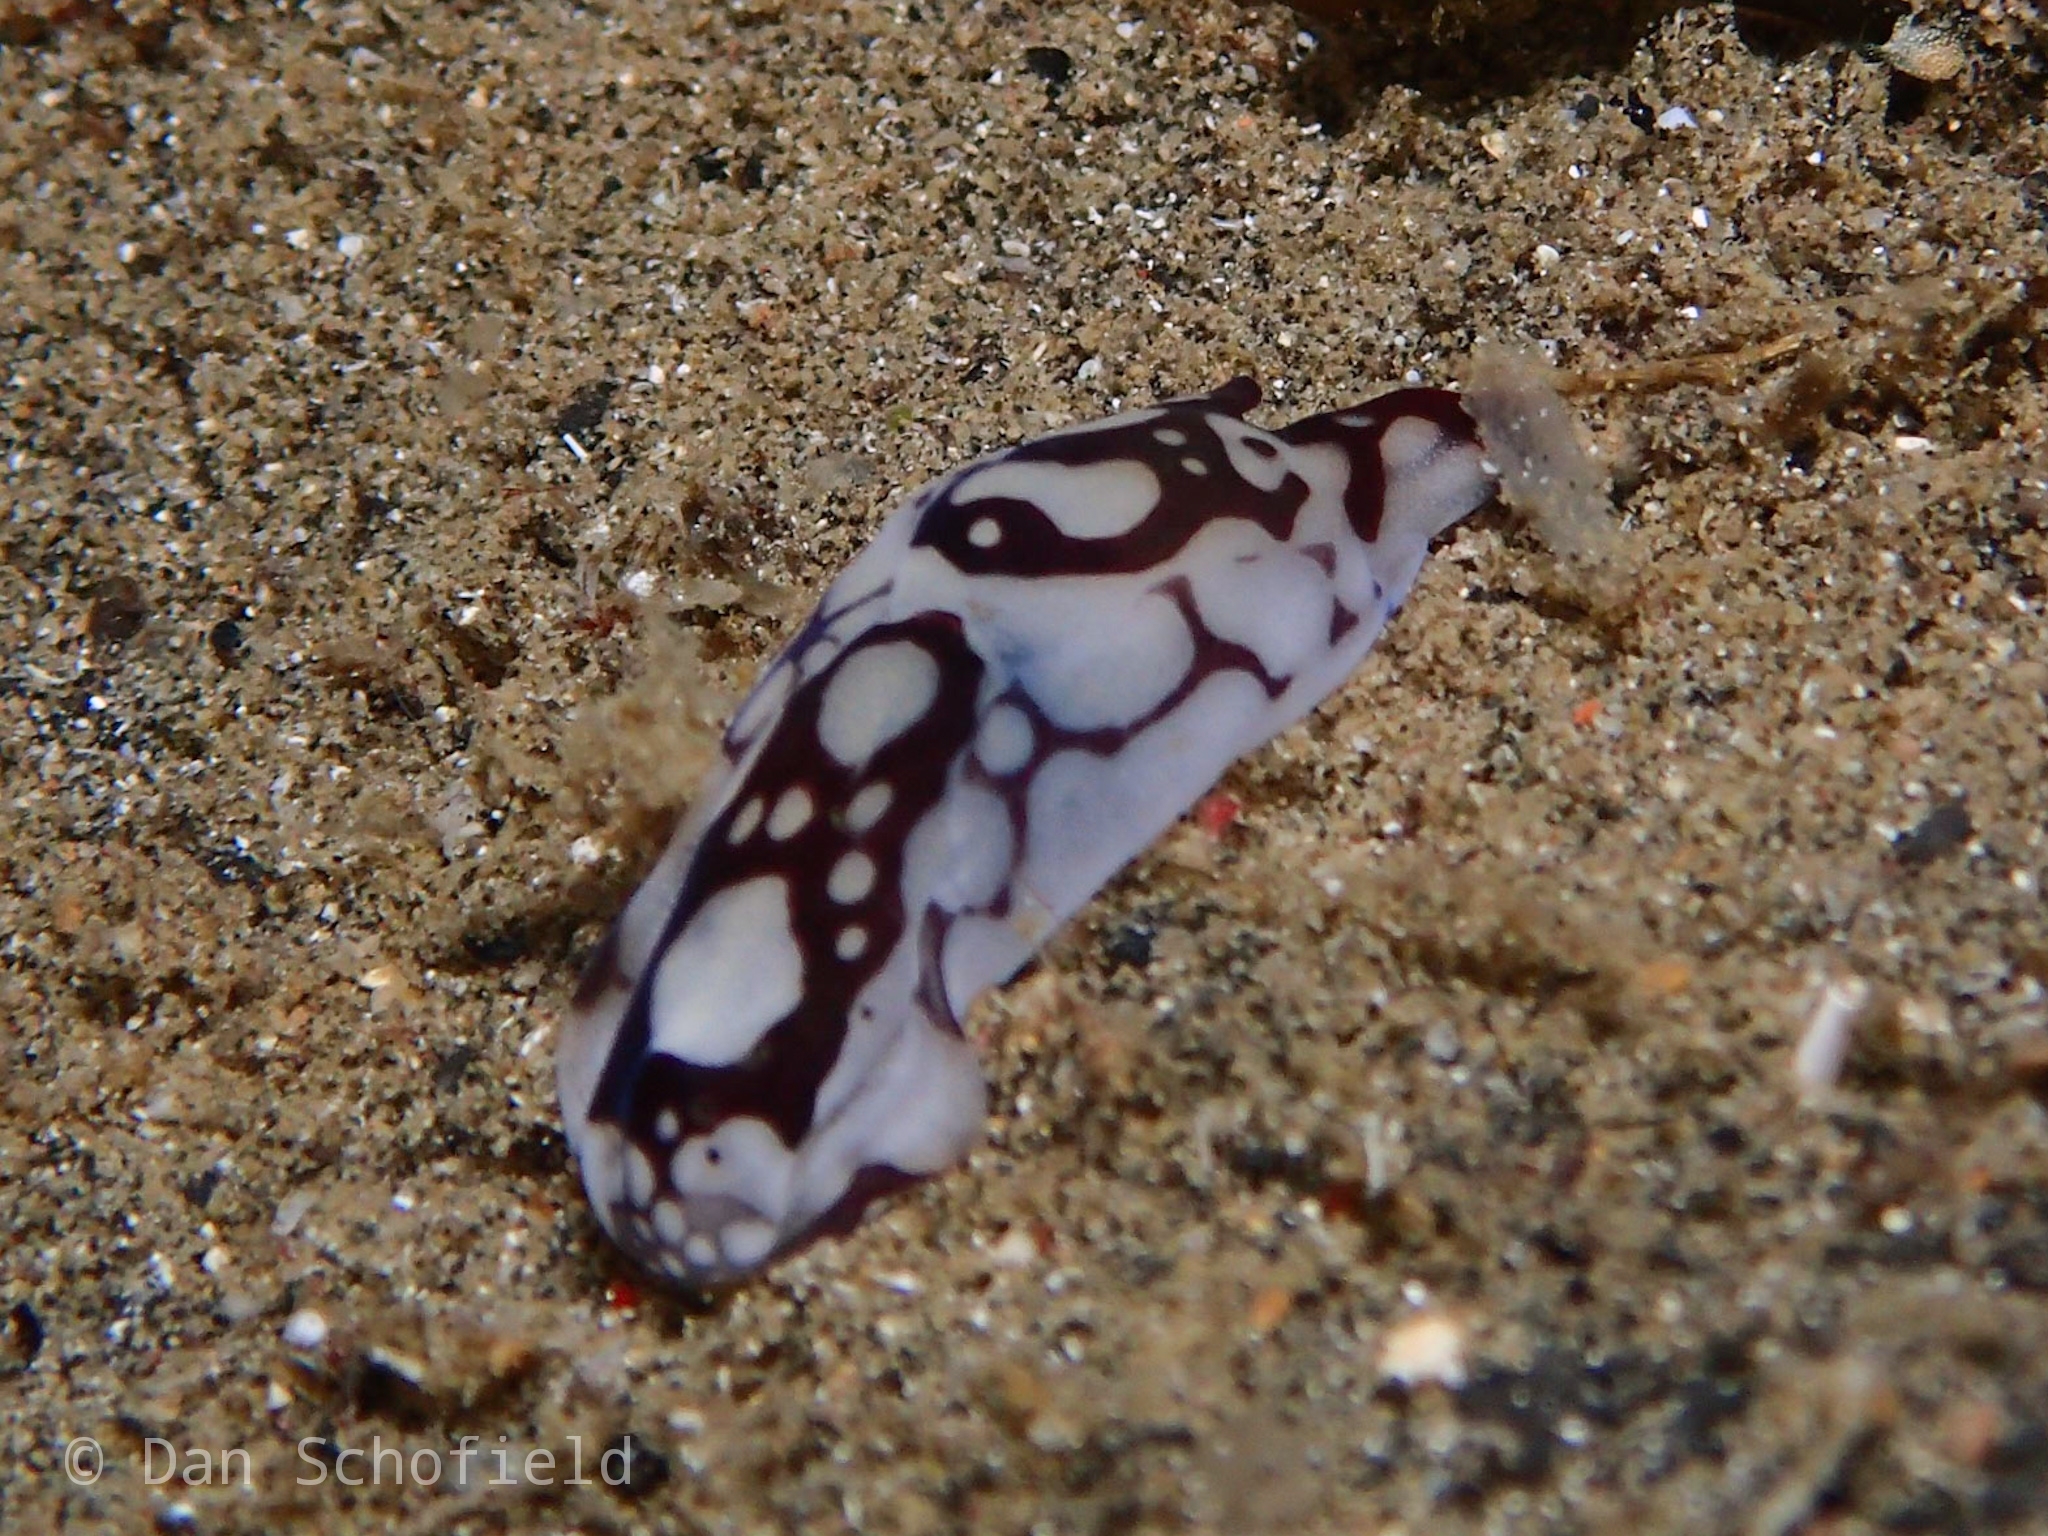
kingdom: Animalia
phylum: Mollusca
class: Gastropoda
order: Cephalaspidea
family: Aglajidae
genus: Tubulophilinopsis
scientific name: Tubulophilinopsis pilsbryi
